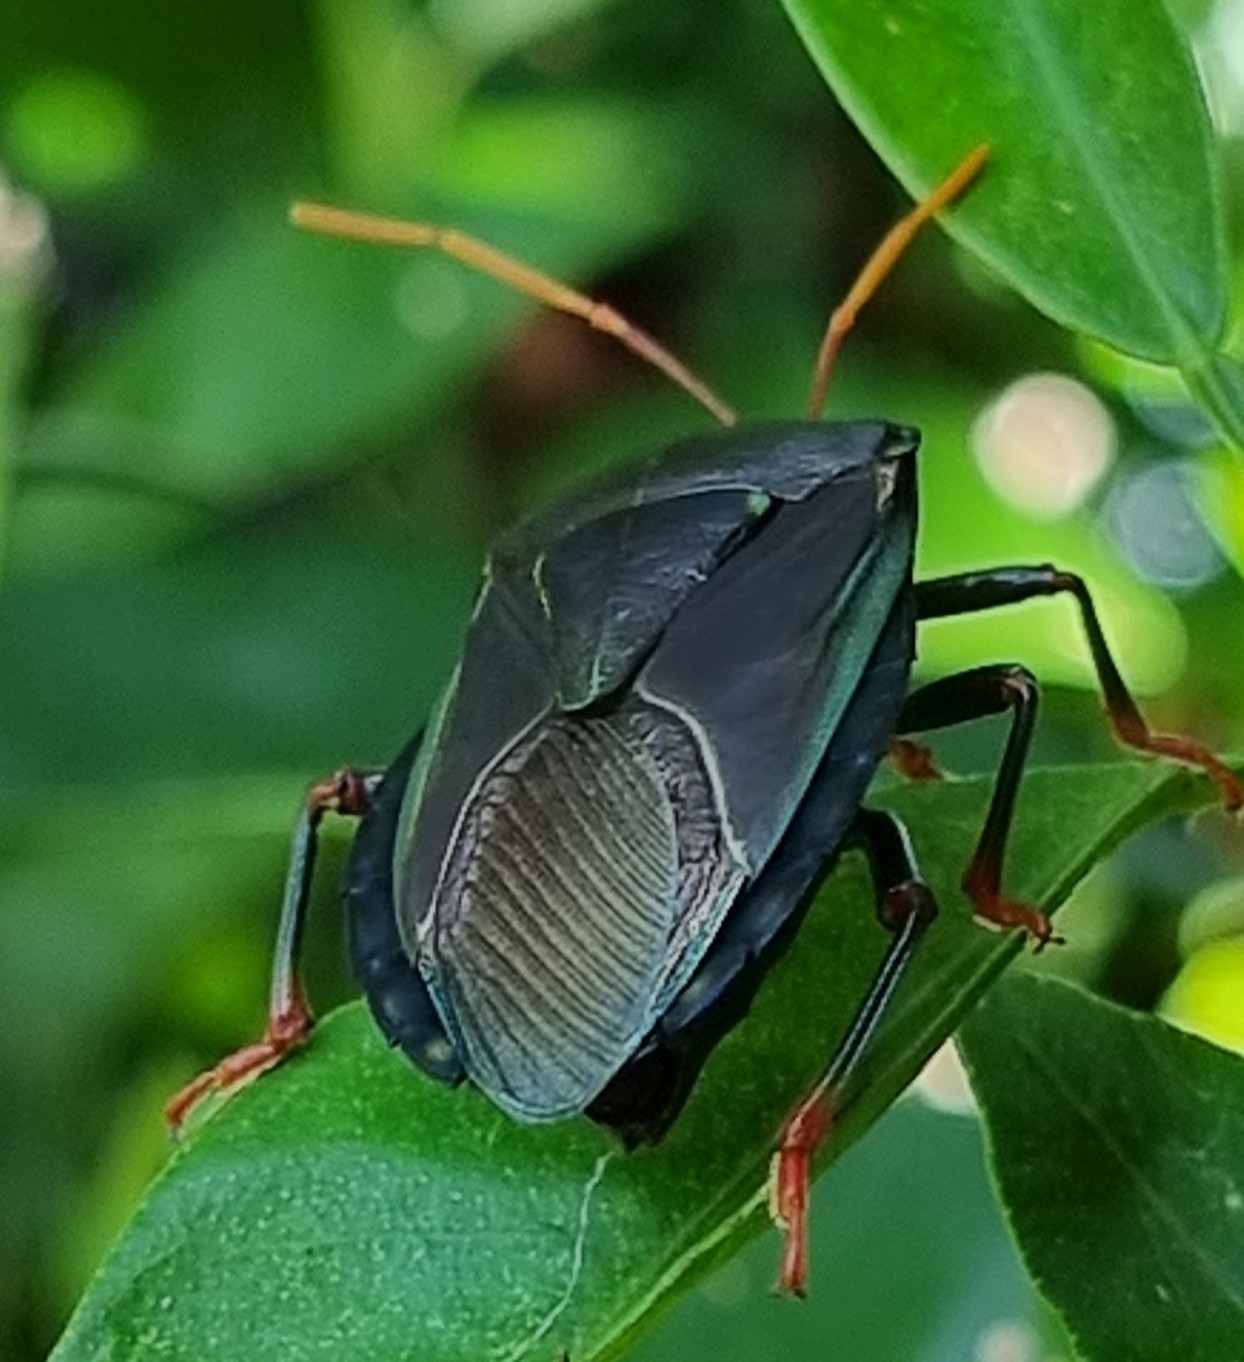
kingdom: Animalia
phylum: Arthropoda
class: Insecta
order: Hemiptera
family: Tessaratomidae
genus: Musgraveia
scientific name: Musgraveia sulciventris
